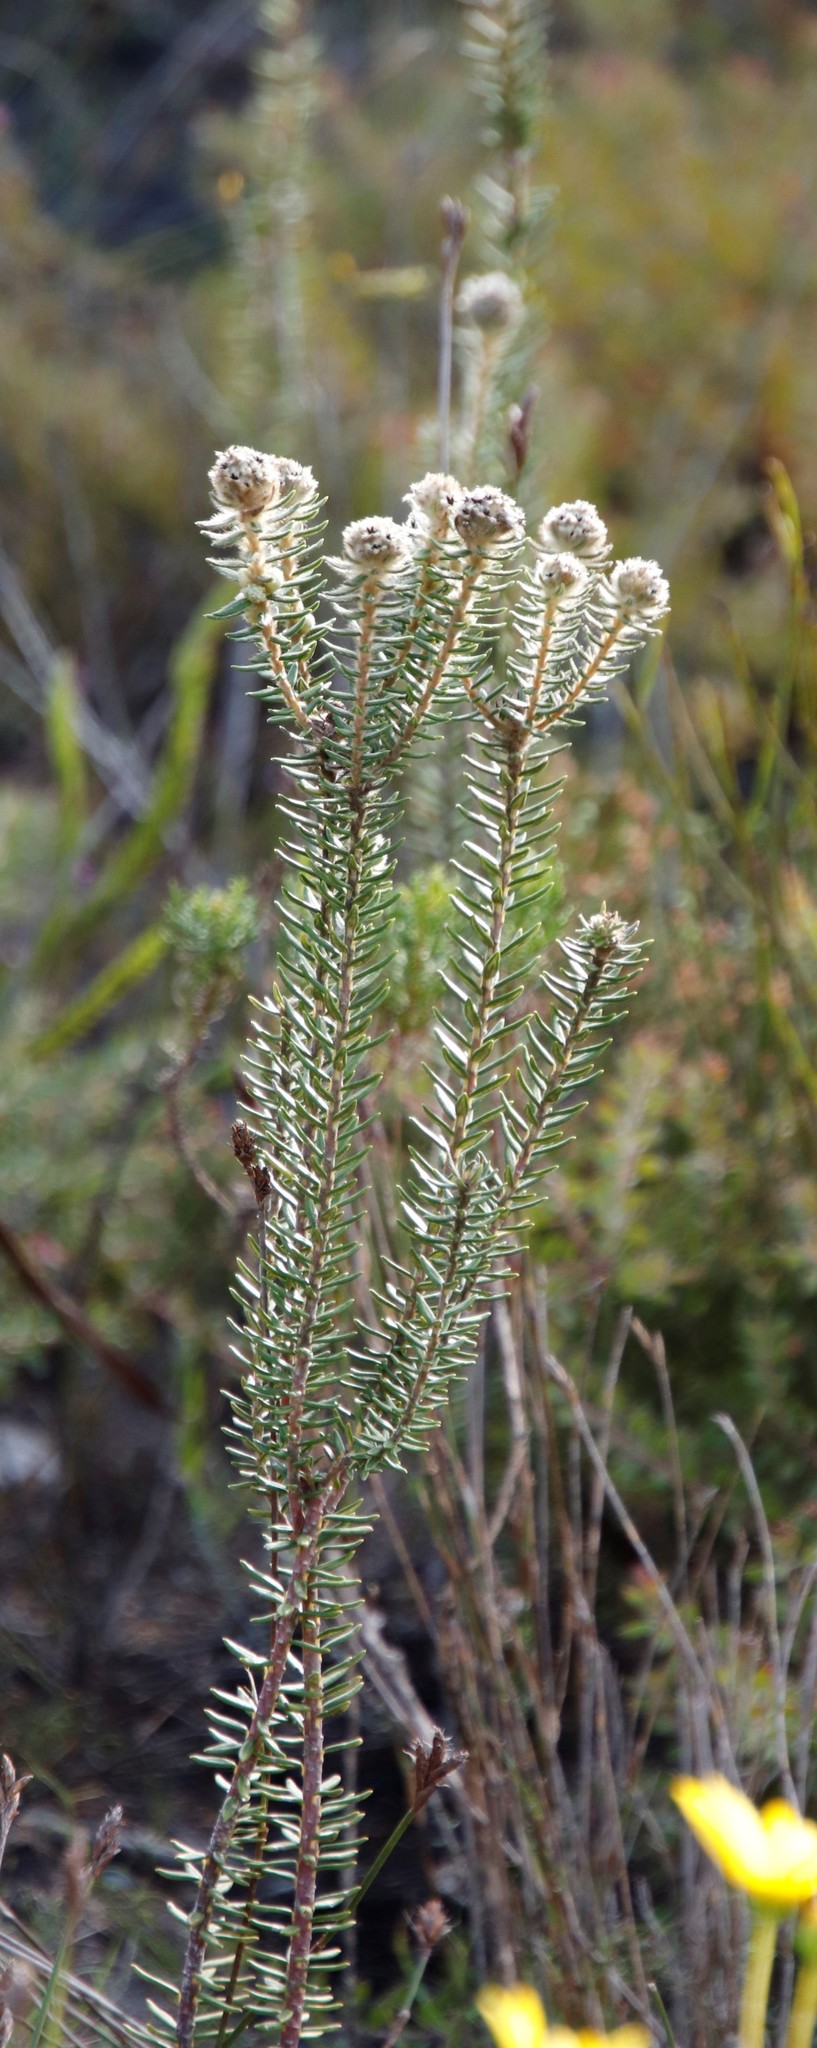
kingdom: Plantae
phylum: Tracheophyta
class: Magnoliopsida
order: Rosales
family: Rhamnaceae
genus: Phylica
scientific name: Phylica strigosa
